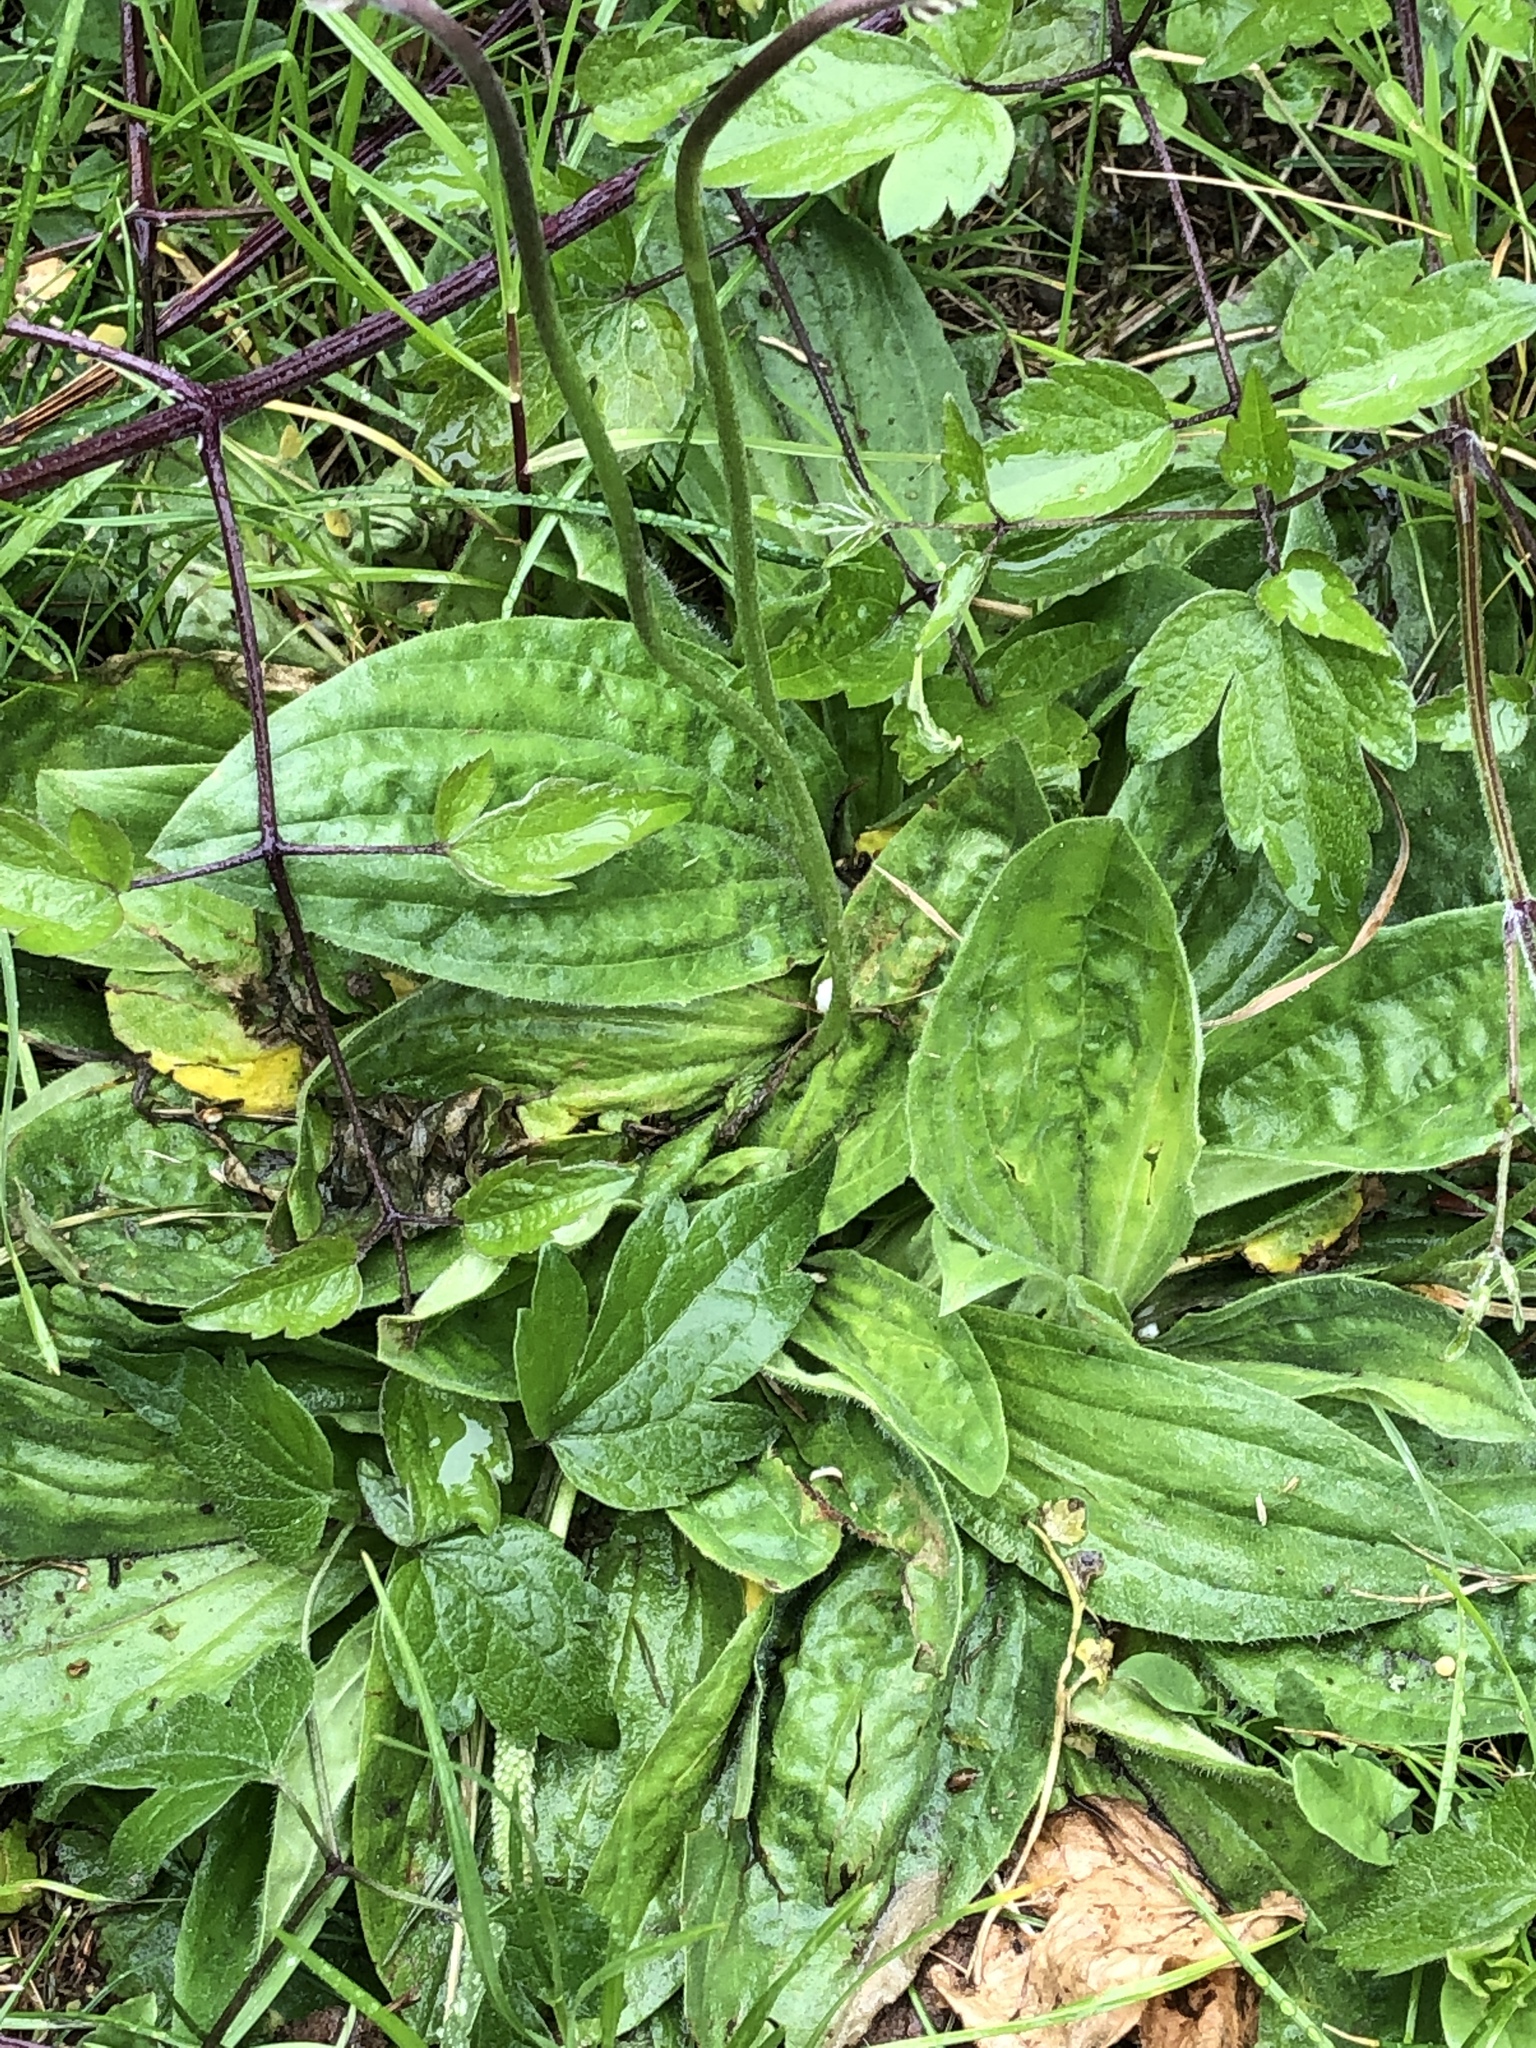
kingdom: Plantae
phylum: Tracheophyta
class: Magnoliopsida
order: Lamiales
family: Plantaginaceae
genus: Plantago
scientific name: Plantago media
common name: Hoary plantain
